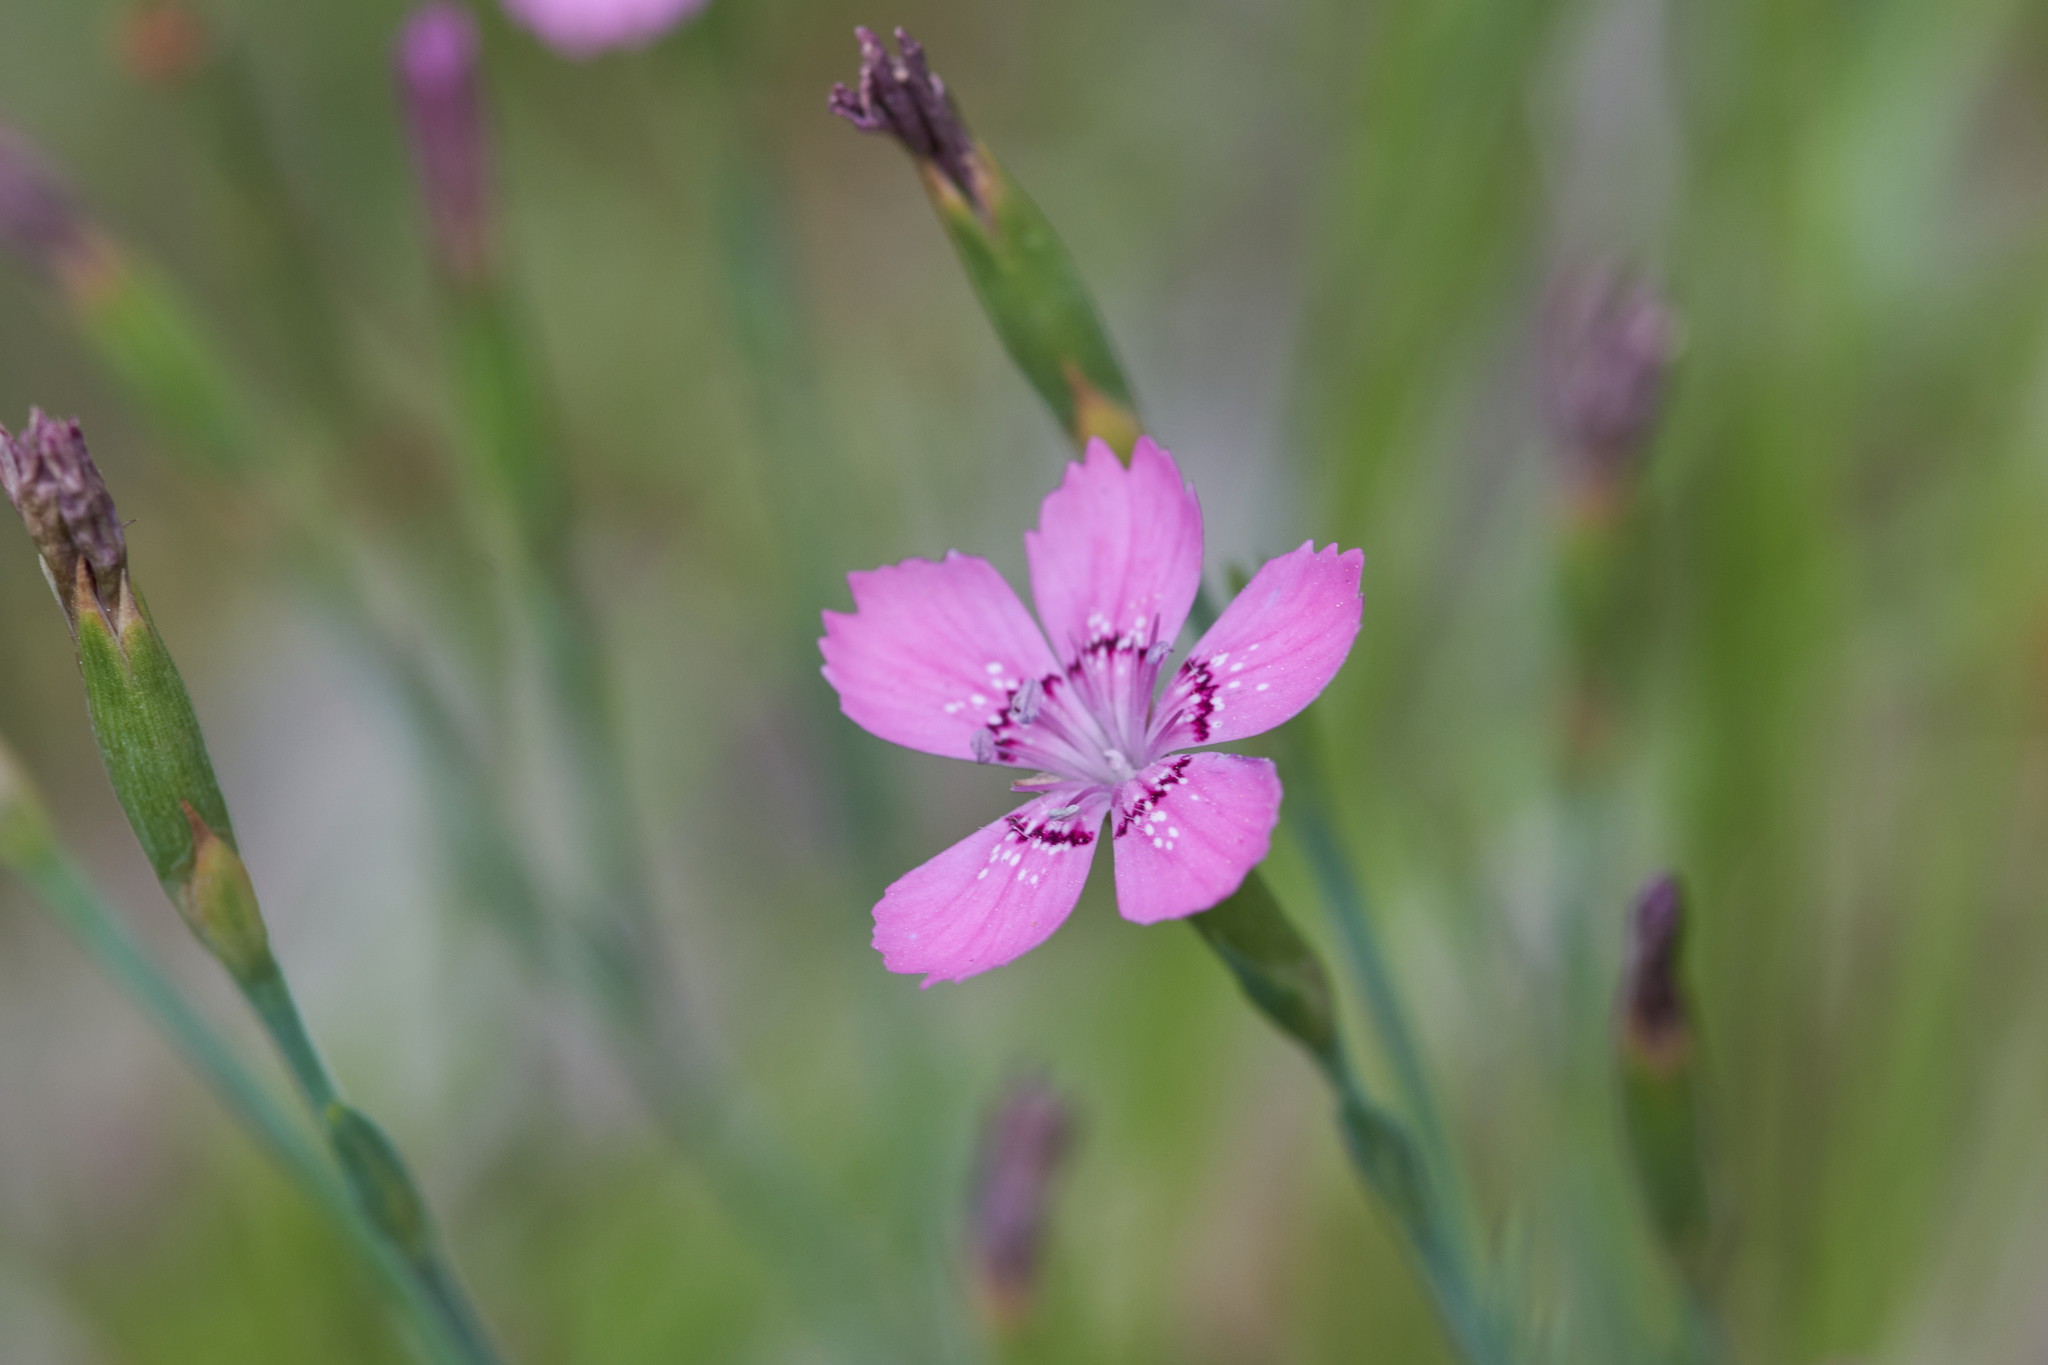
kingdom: Plantae
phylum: Tracheophyta
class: Magnoliopsida
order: Caryophyllales
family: Caryophyllaceae
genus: Dianthus
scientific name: Dianthus deltoides
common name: Maiden pink
